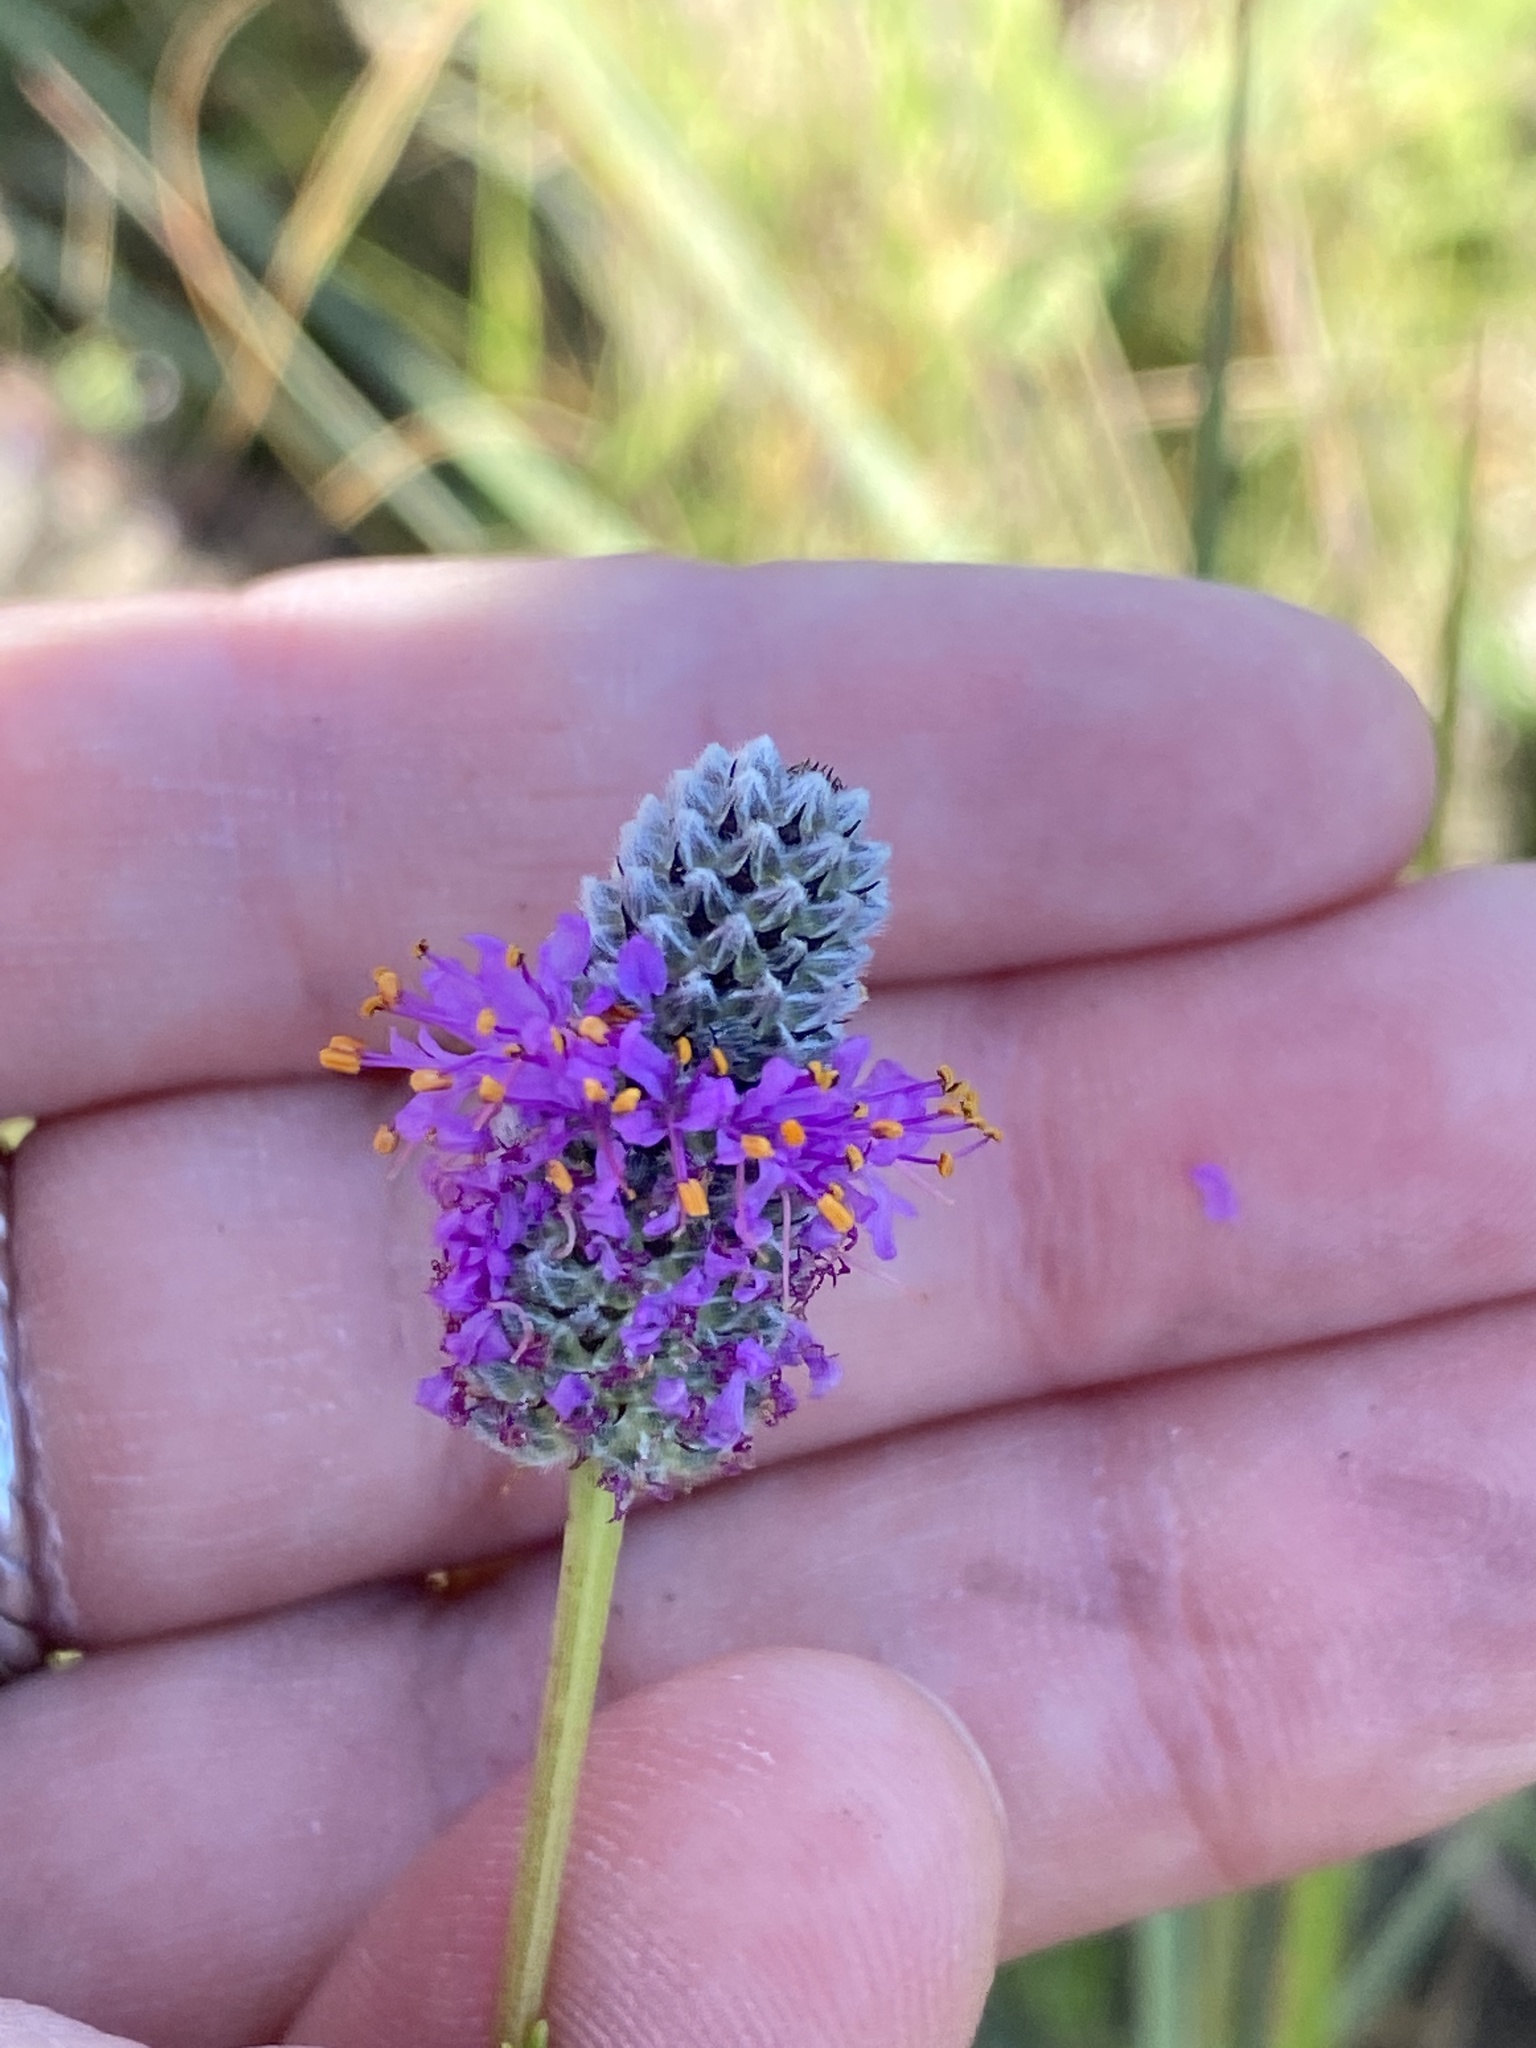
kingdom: Plantae
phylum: Tracheophyta
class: Magnoliopsida
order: Fabales
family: Fabaceae
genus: Dalea
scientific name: Dalea purpurea
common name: Purple prairie-clover
